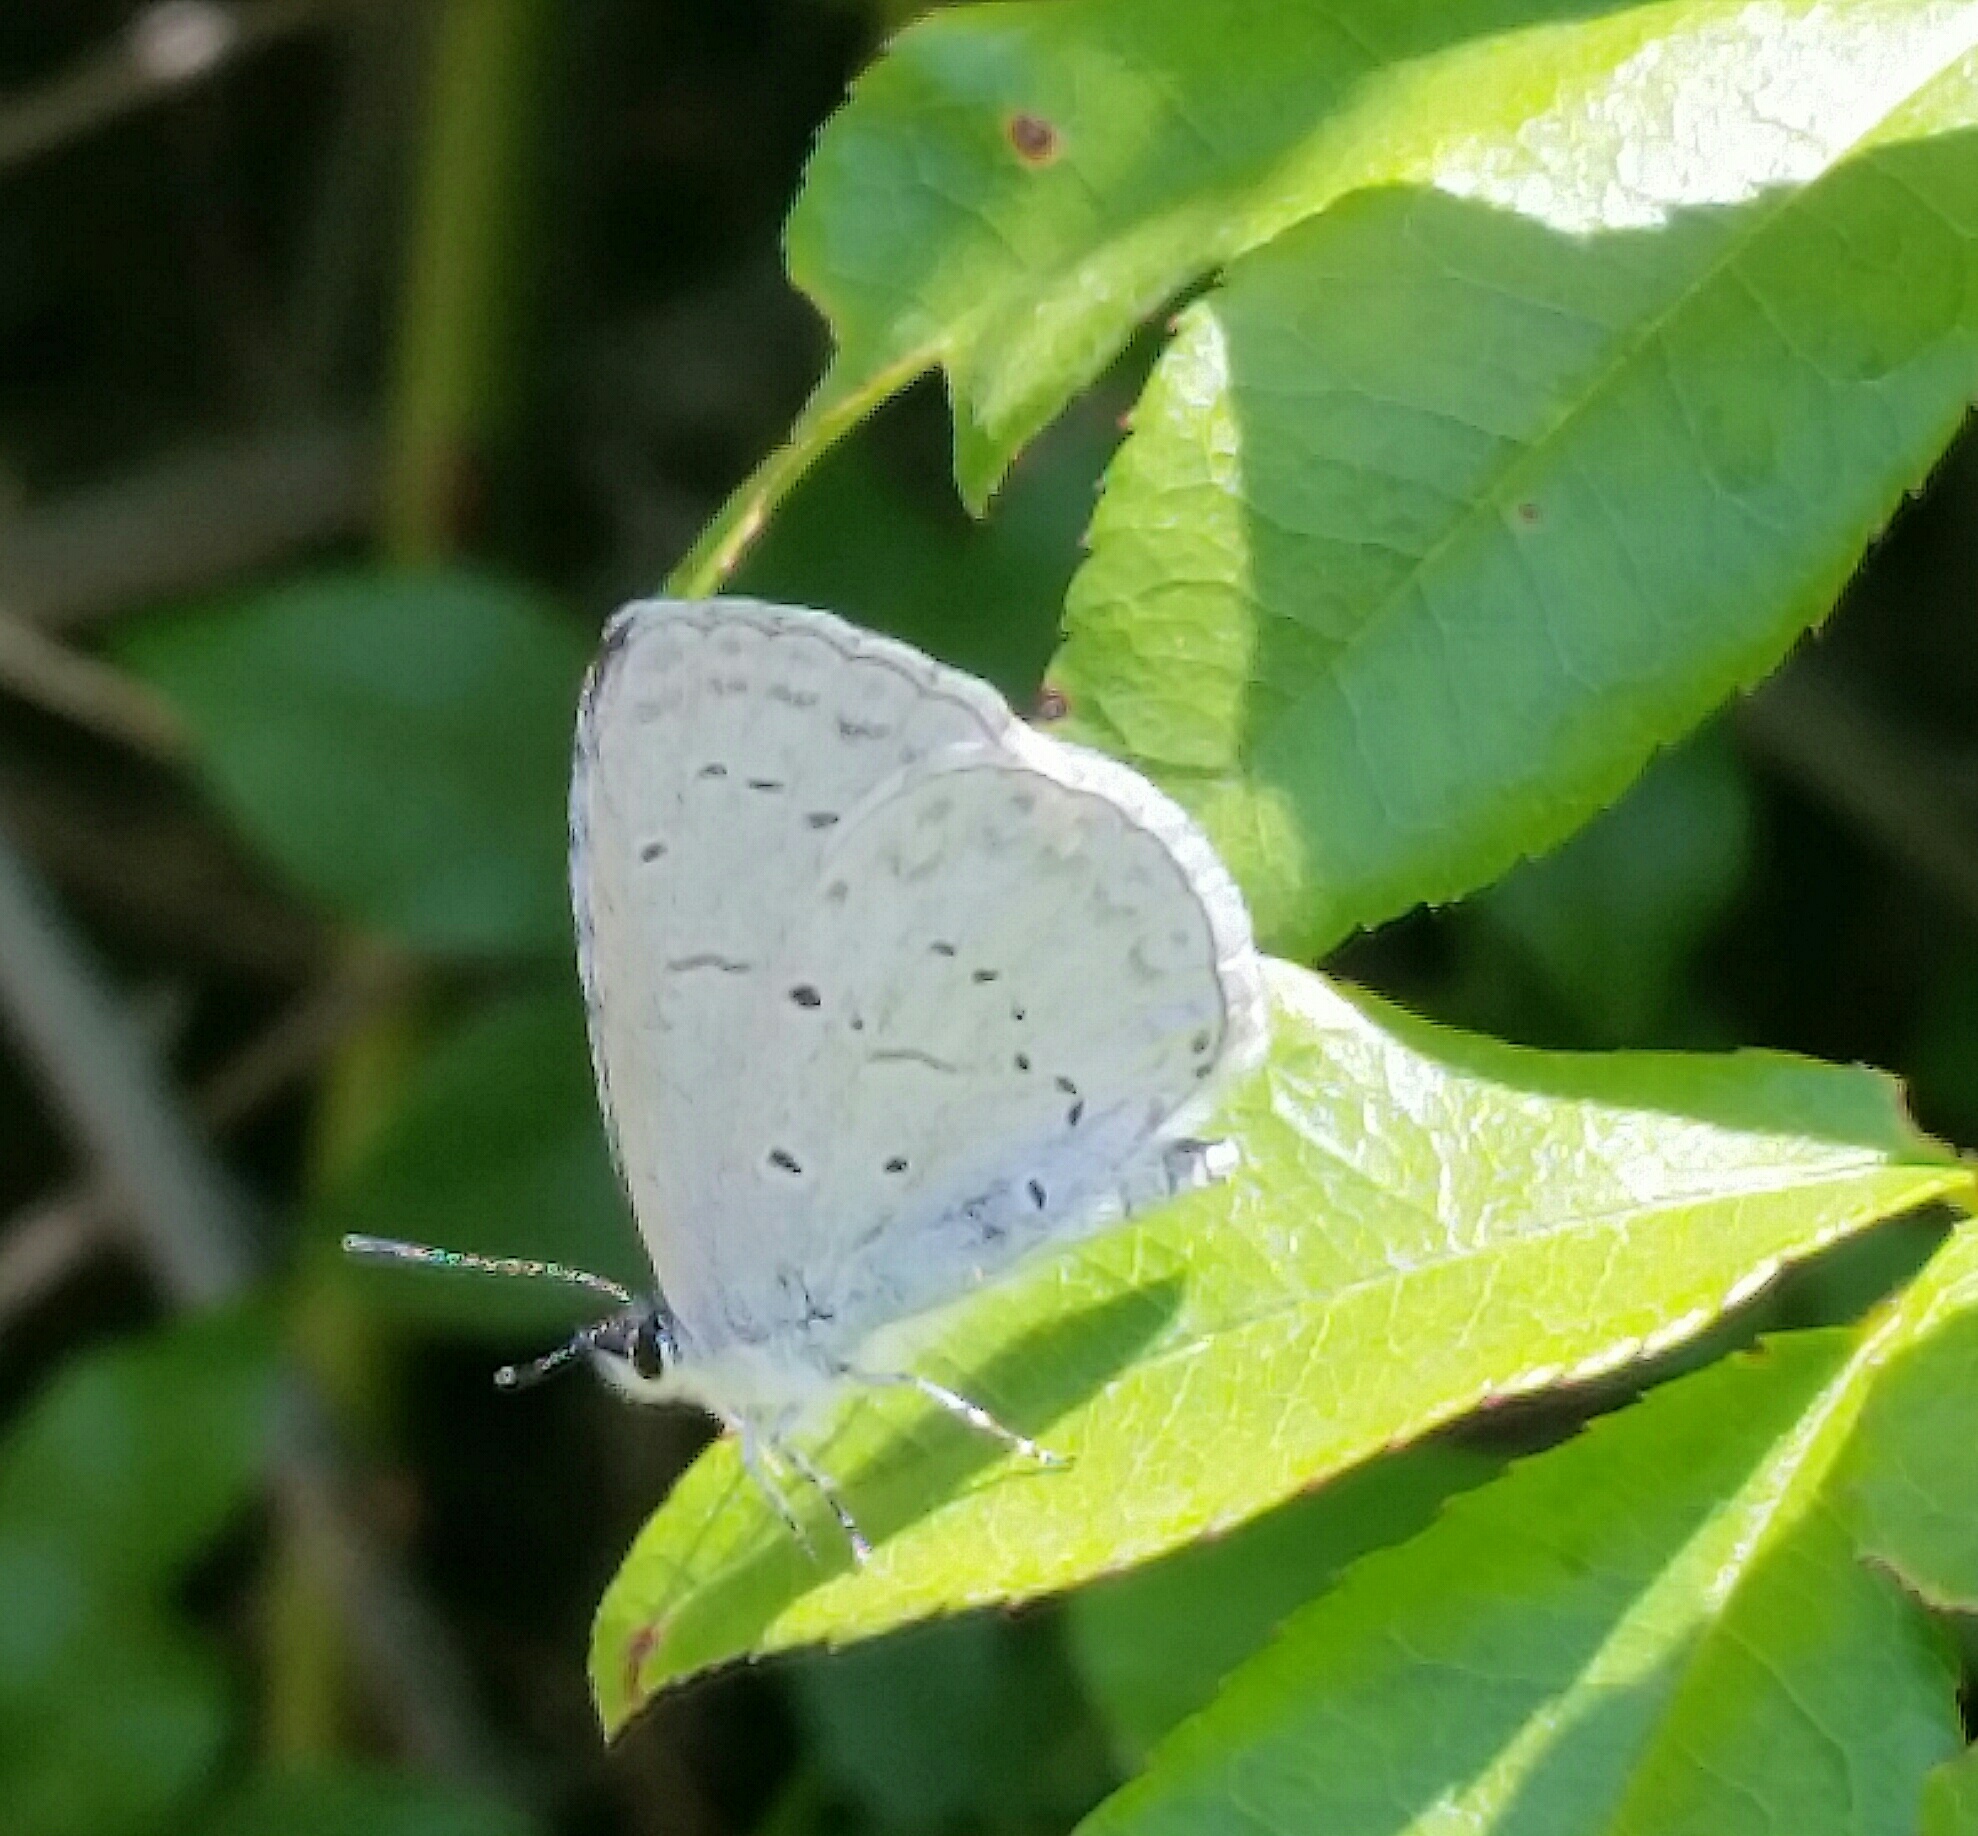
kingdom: Animalia
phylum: Arthropoda
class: Insecta
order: Lepidoptera
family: Lycaenidae
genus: Celastrina
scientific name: Celastrina ladon
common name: Spring azure
